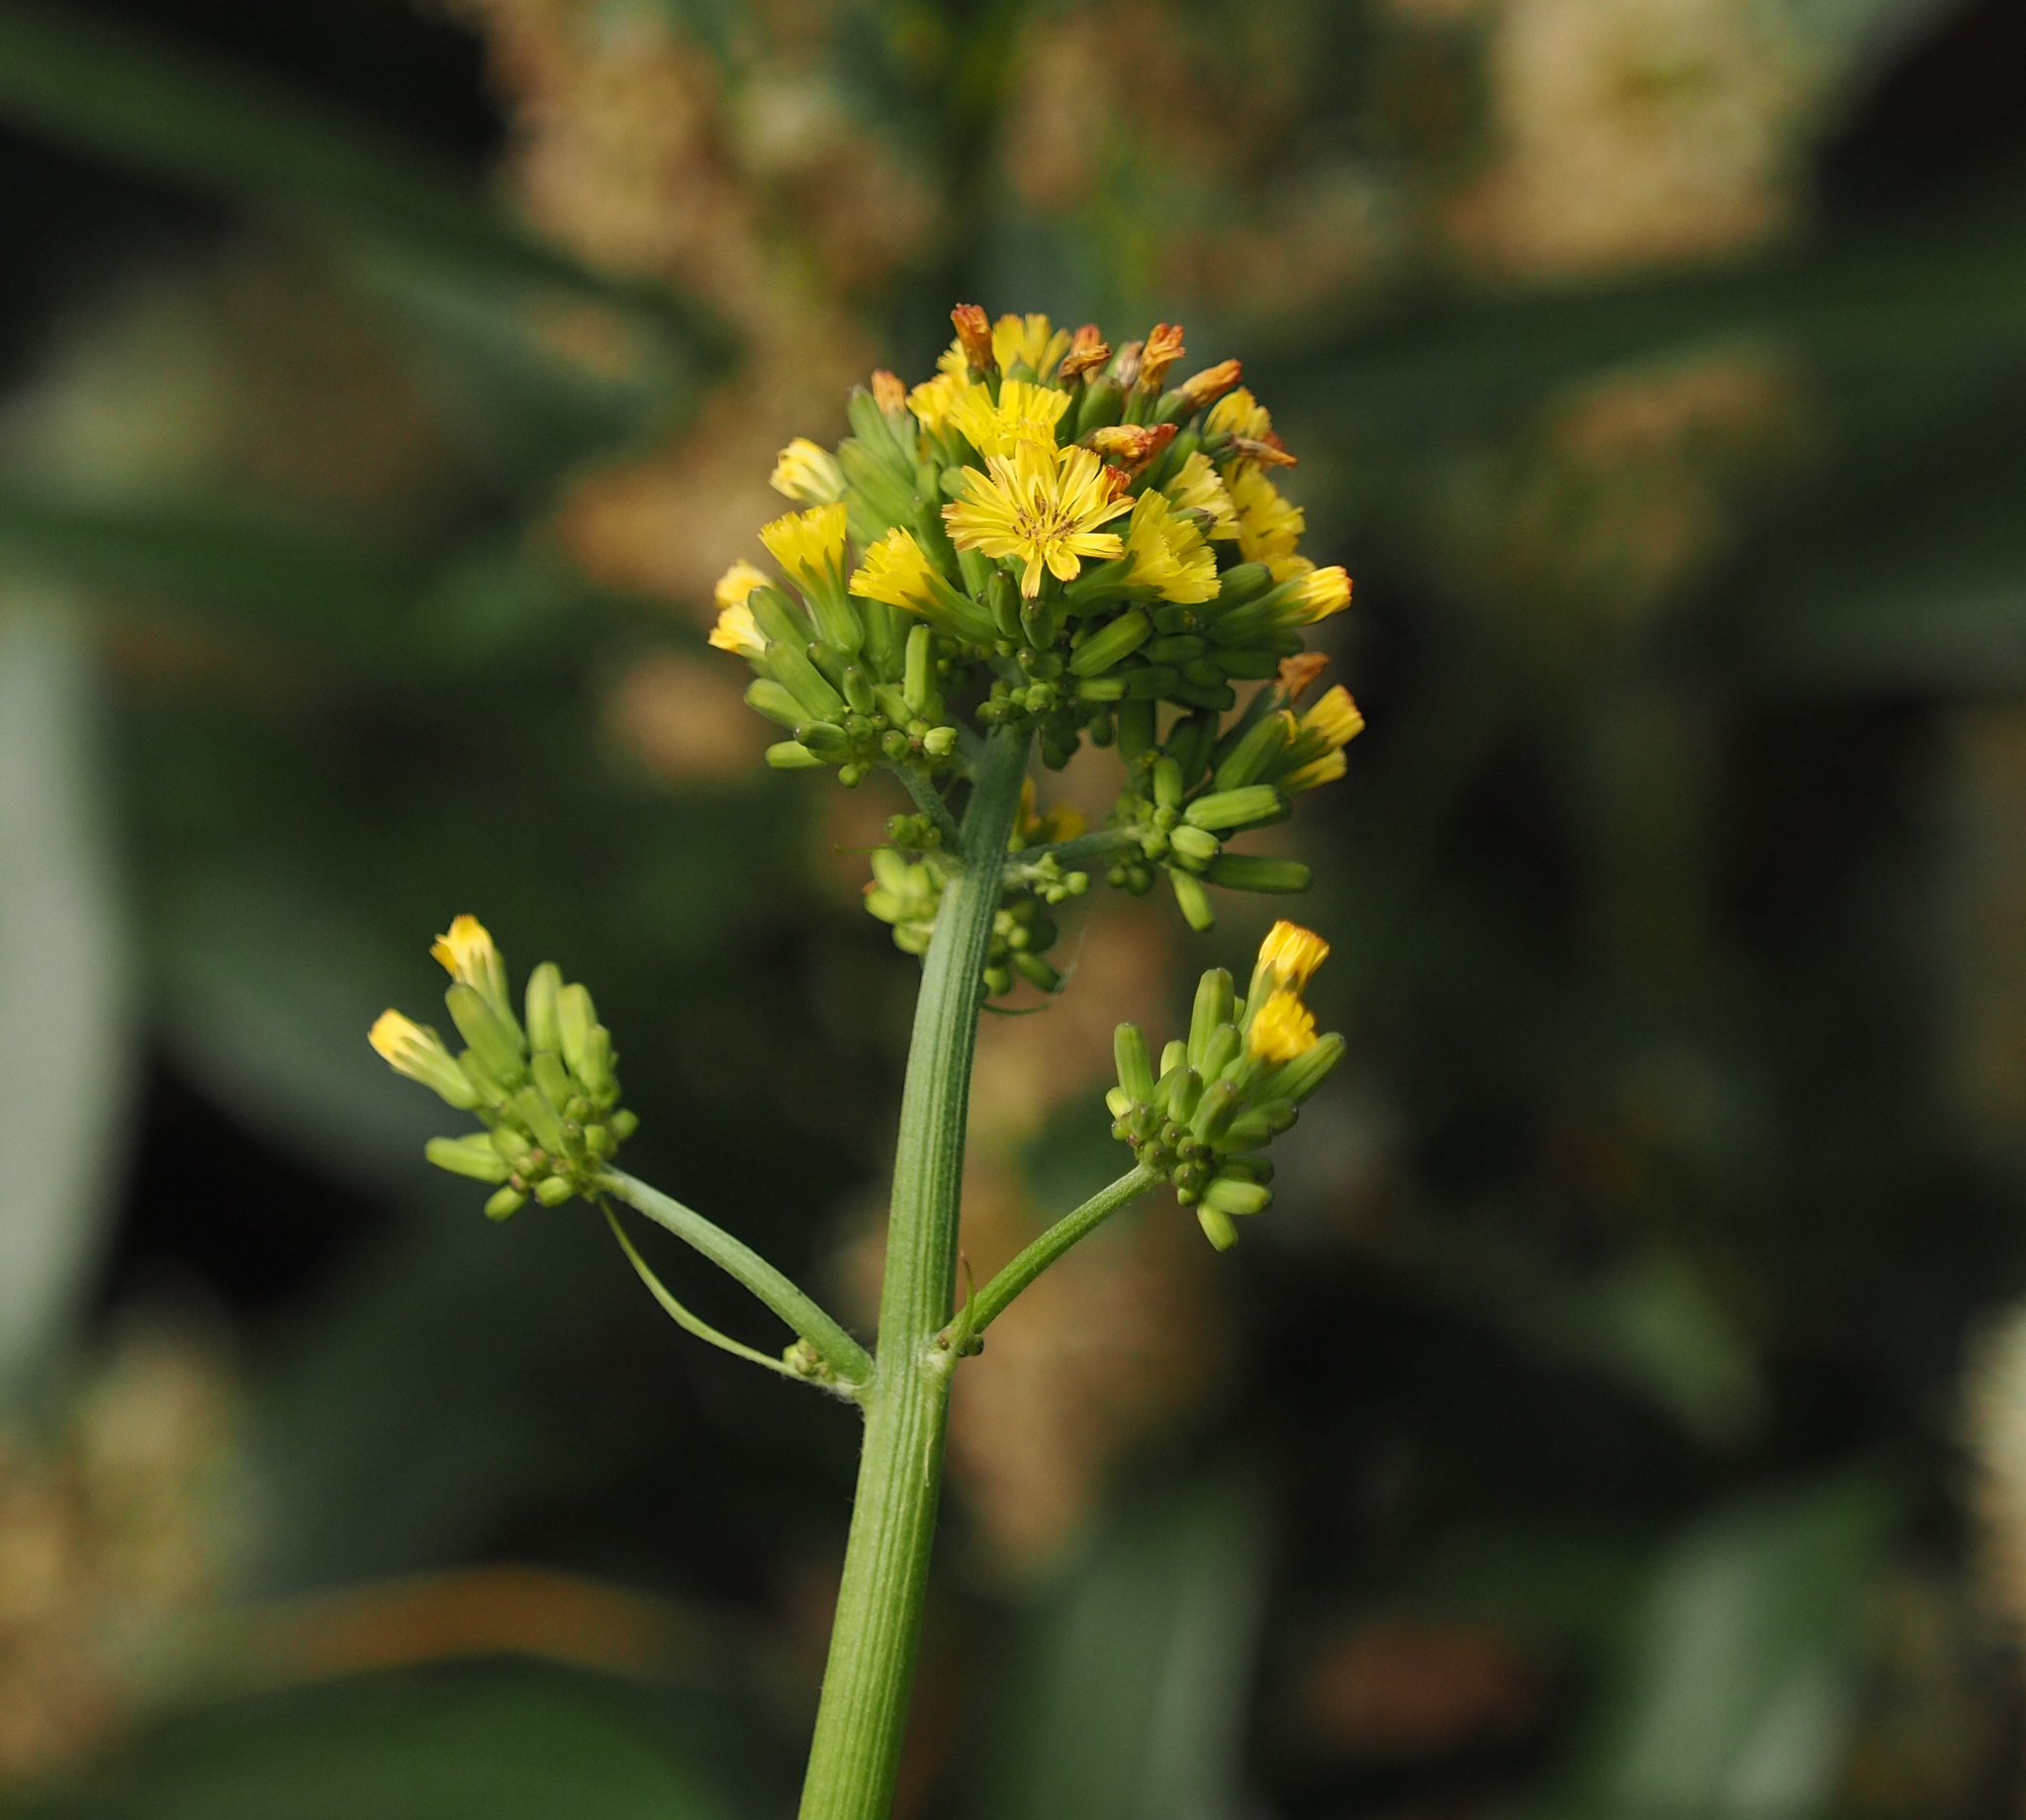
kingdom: Plantae
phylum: Tracheophyta
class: Magnoliopsida
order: Asterales
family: Asteraceae
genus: Youngia
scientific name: Youngia japonica
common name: Oriental false hawksbeard
